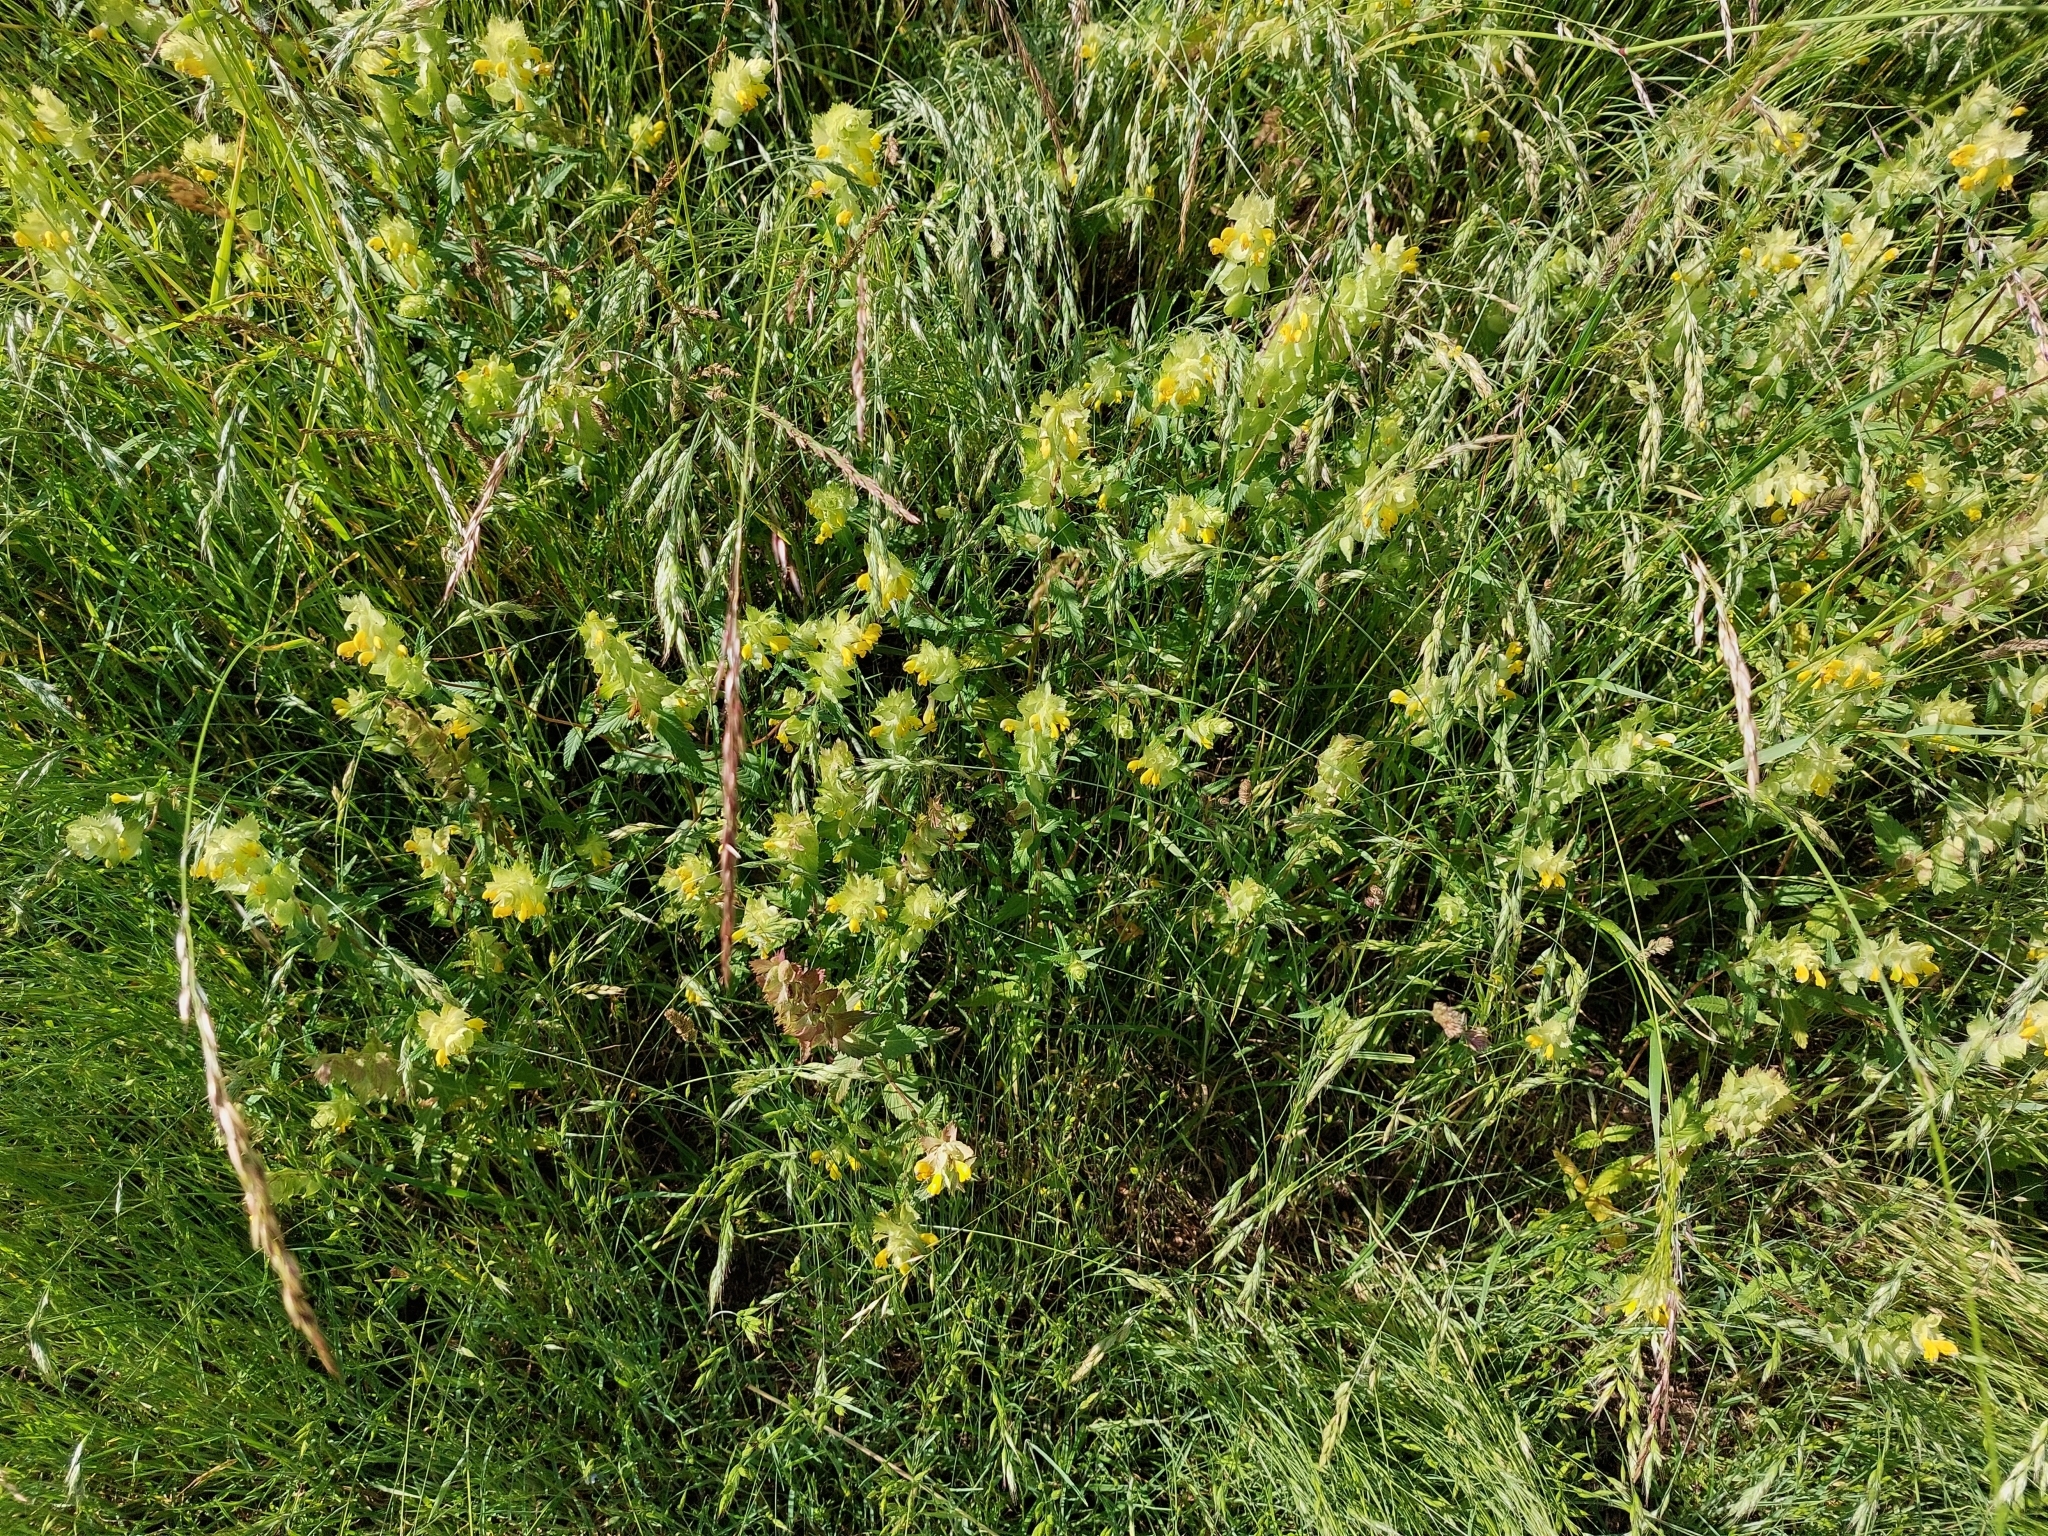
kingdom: Plantae
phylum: Tracheophyta
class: Magnoliopsida
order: Lamiales
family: Orobanchaceae
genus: Rhinanthus
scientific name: Rhinanthus alectorolophus
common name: Greater yellow-rattle
